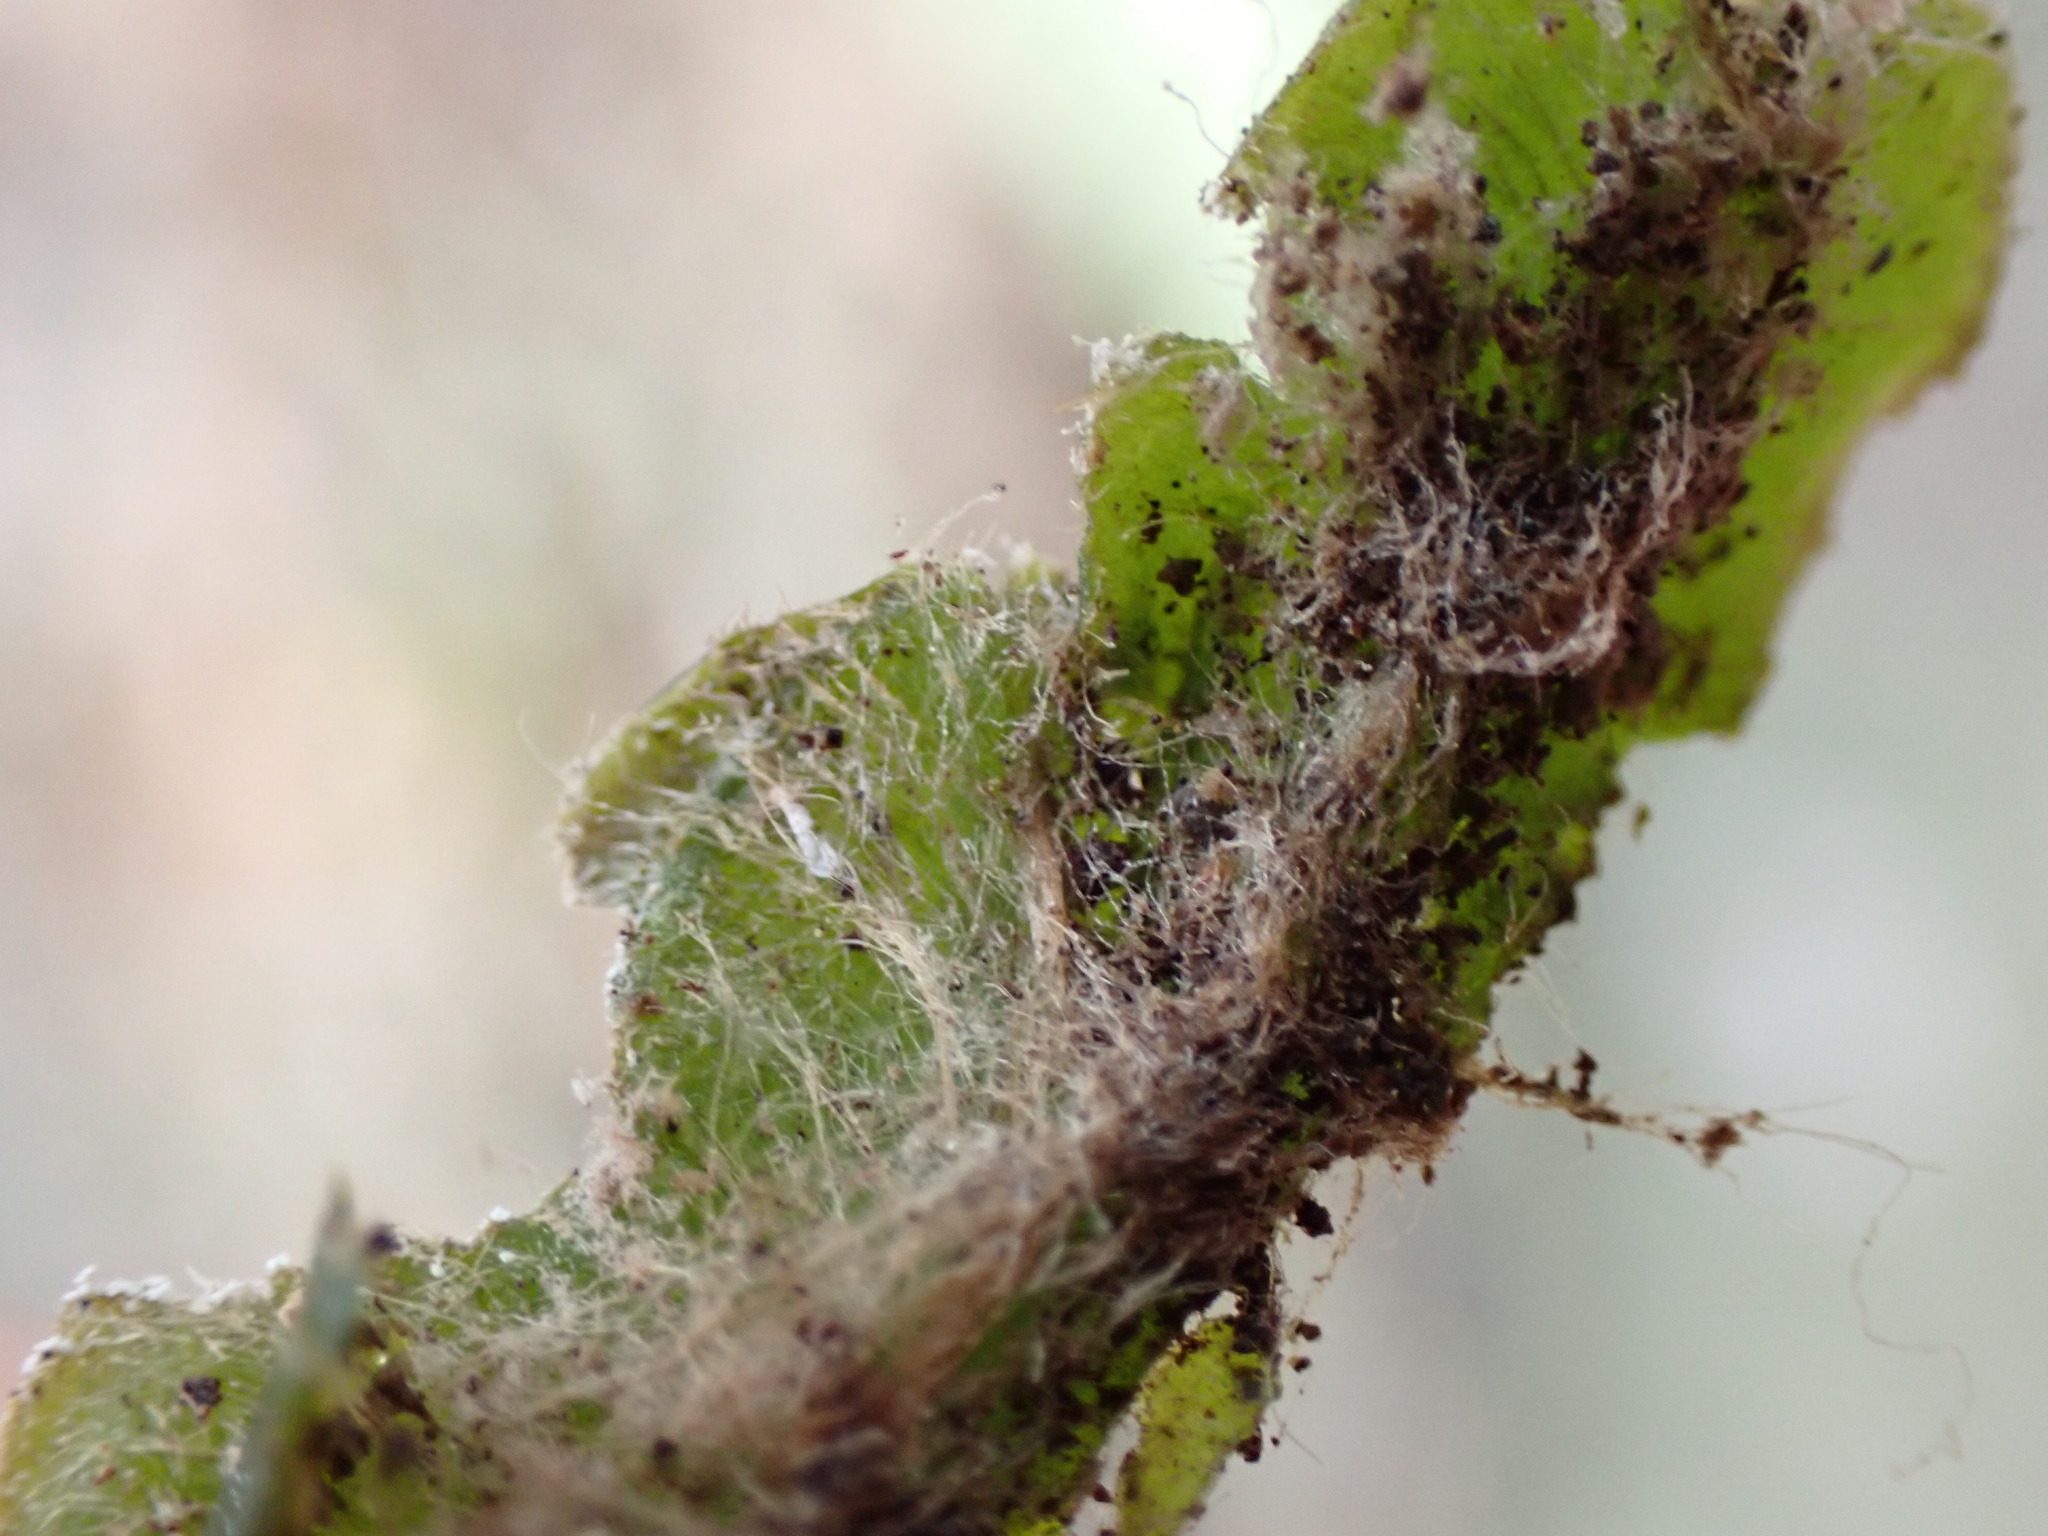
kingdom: Plantae
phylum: Marchantiophyta
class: Marchantiopsida
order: Marchantiales
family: Dumortieraceae
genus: Dumortiera
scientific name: Dumortiera hirsuta
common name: Dumortier's liverwort
